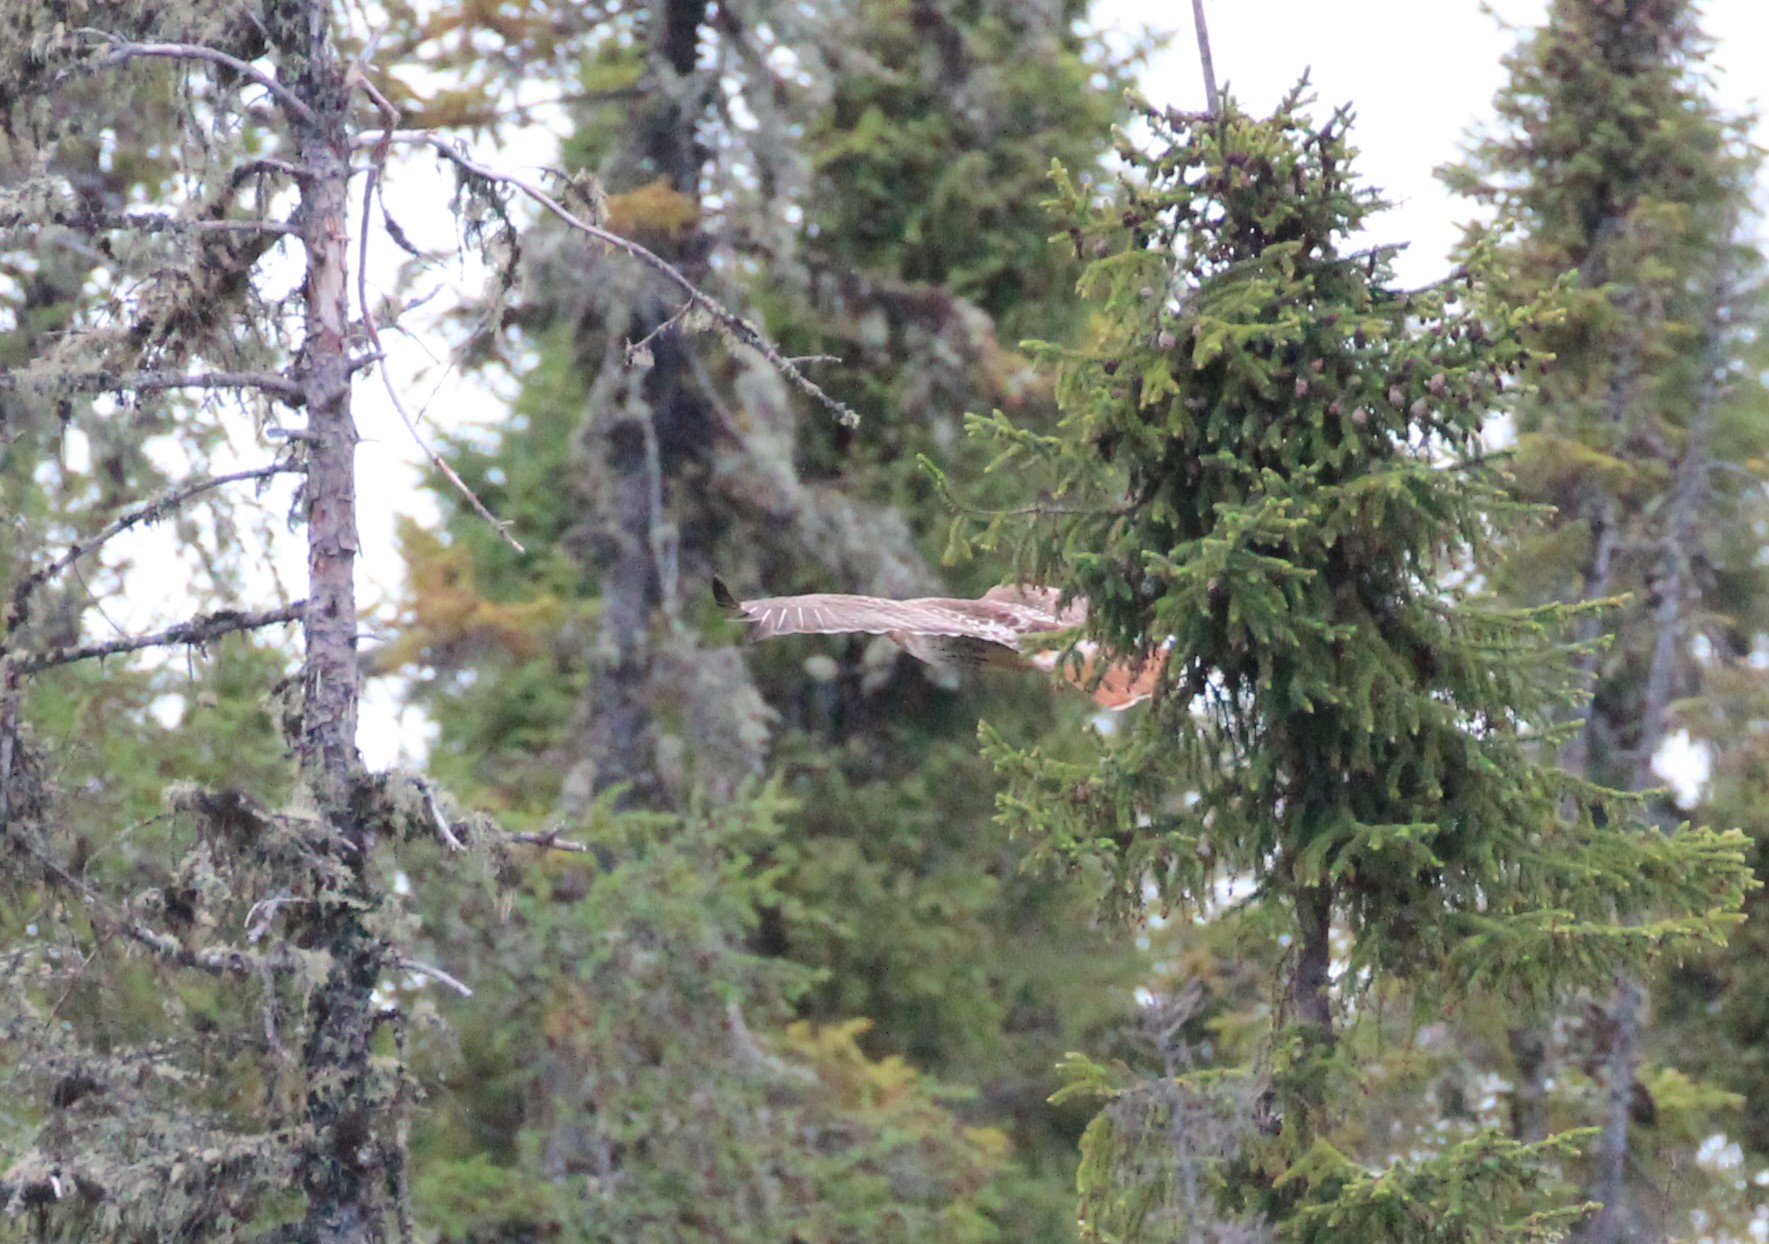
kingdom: Animalia
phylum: Chordata
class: Aves
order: Accipitriformes
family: Accipitridae
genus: Buteo
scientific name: Buteo jamaicensis
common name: Red-tailed hawk
